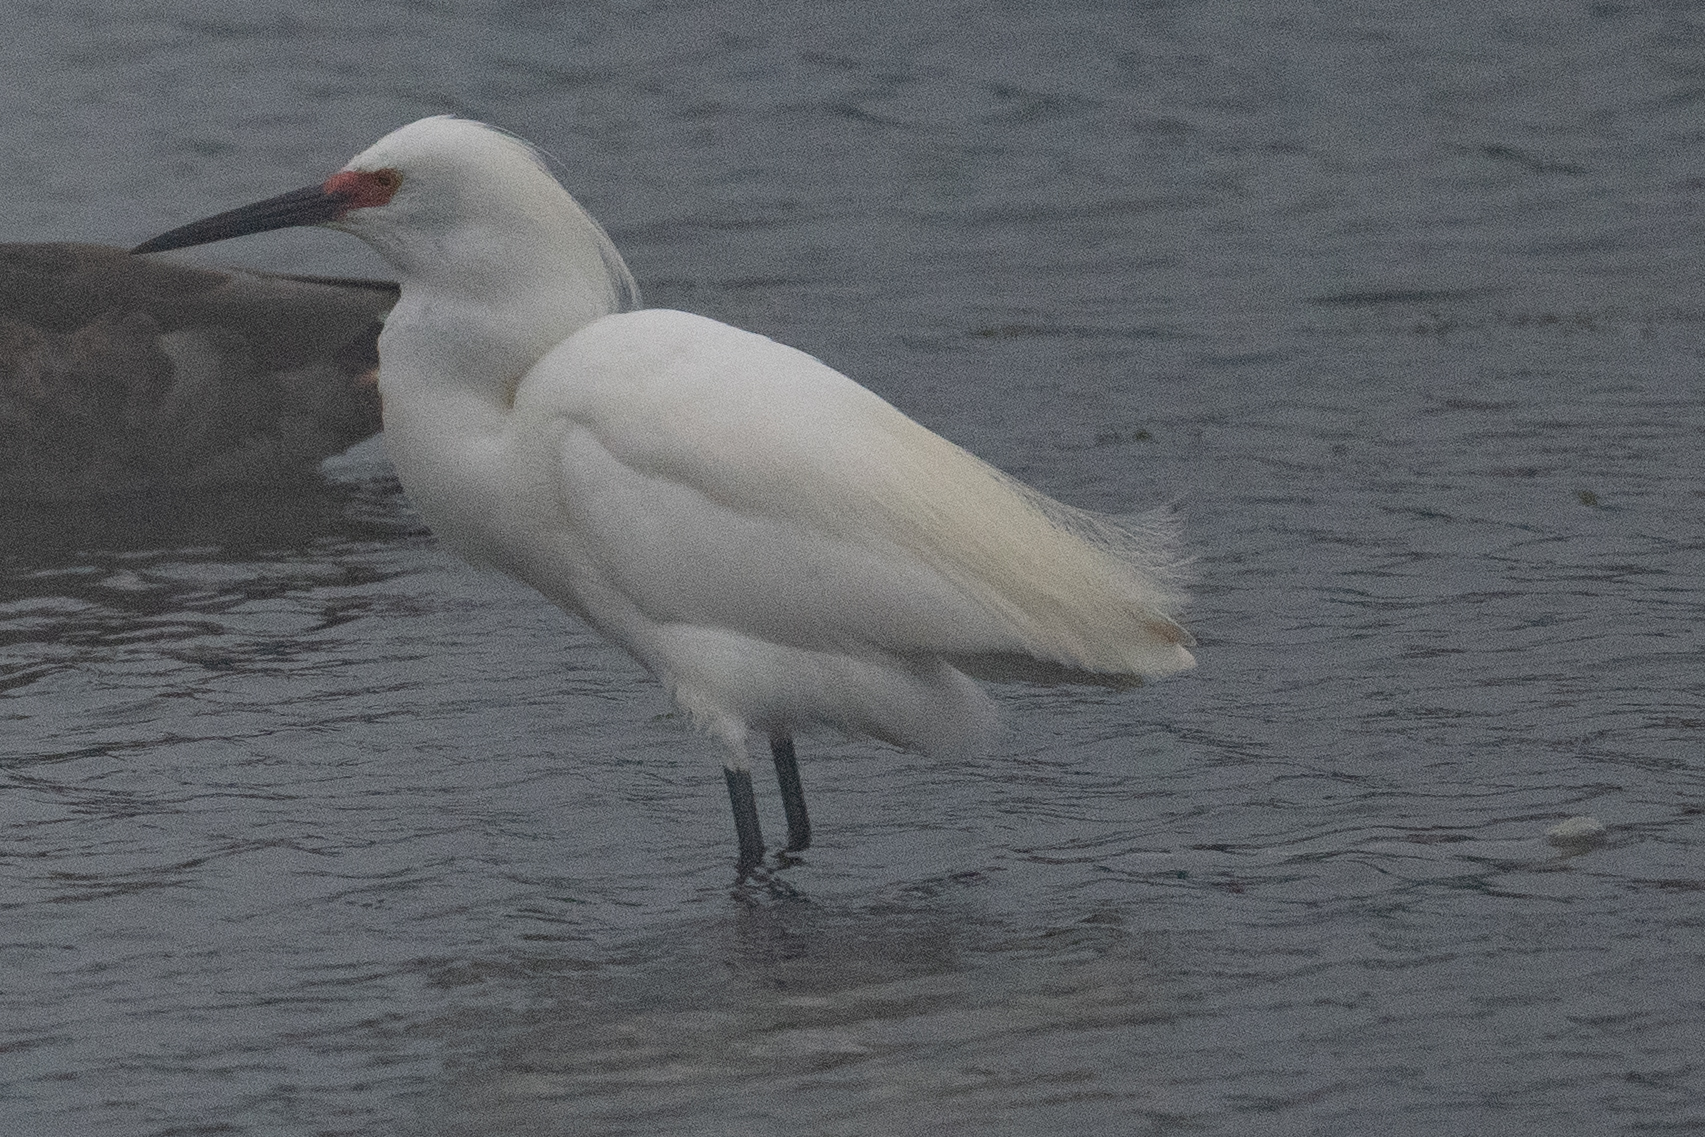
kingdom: Animalia
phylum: Chordata
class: Aves
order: Pelecaniformes
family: Ardeidae
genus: Egretta
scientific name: Egretta thula
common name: Snowy egret
